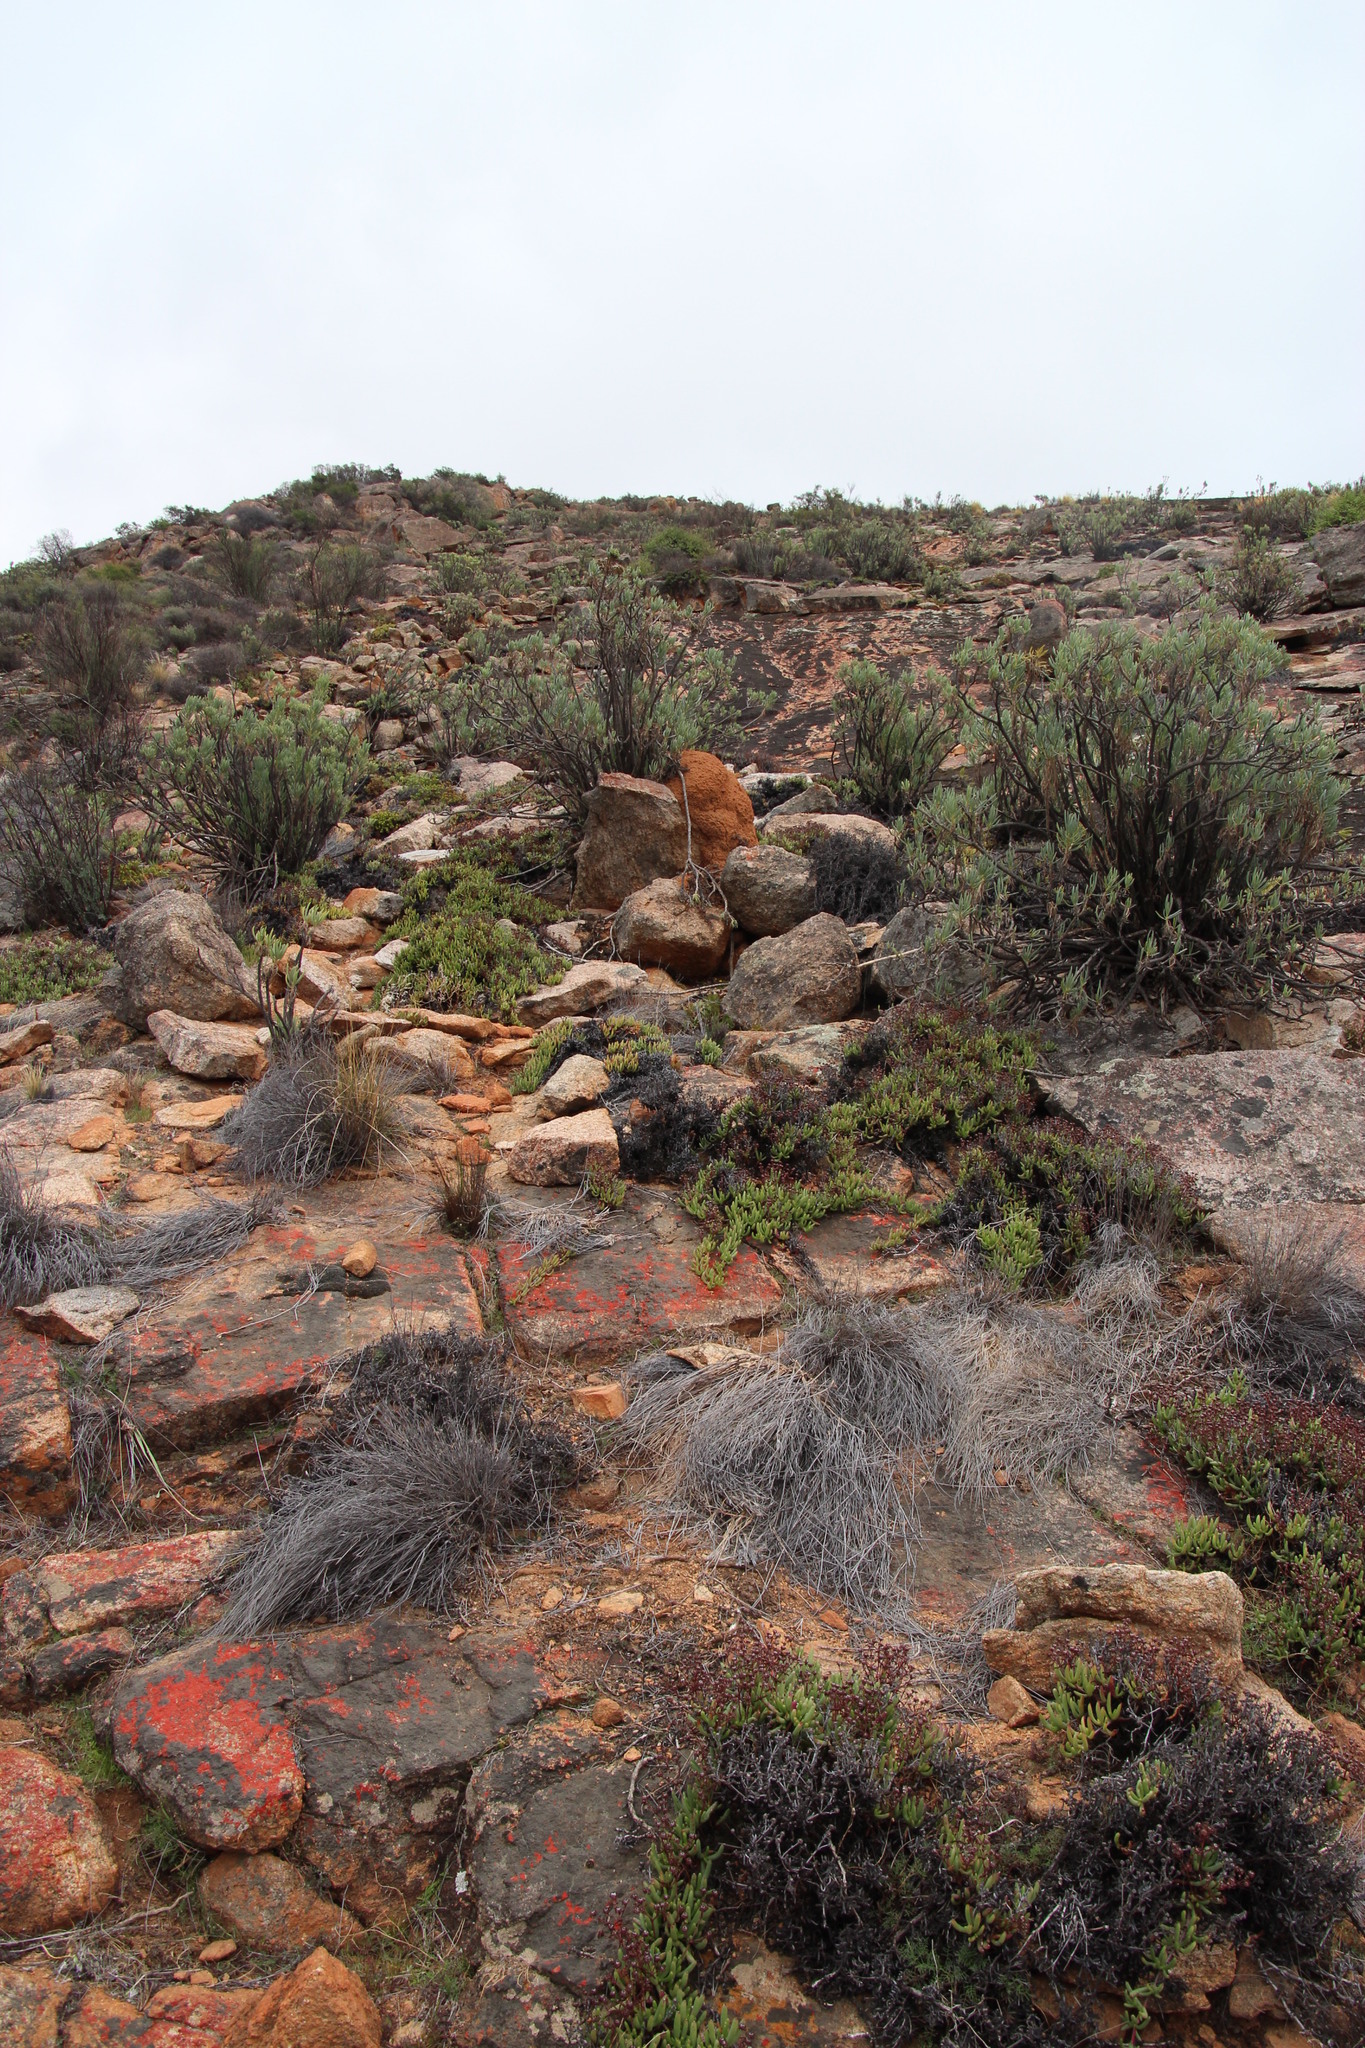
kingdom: Plantae
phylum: Tracheophyta
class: Magnoliopsida
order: Caryophyllales
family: Aizoaceae
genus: Ruschia
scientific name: Ruschia viridifolia
